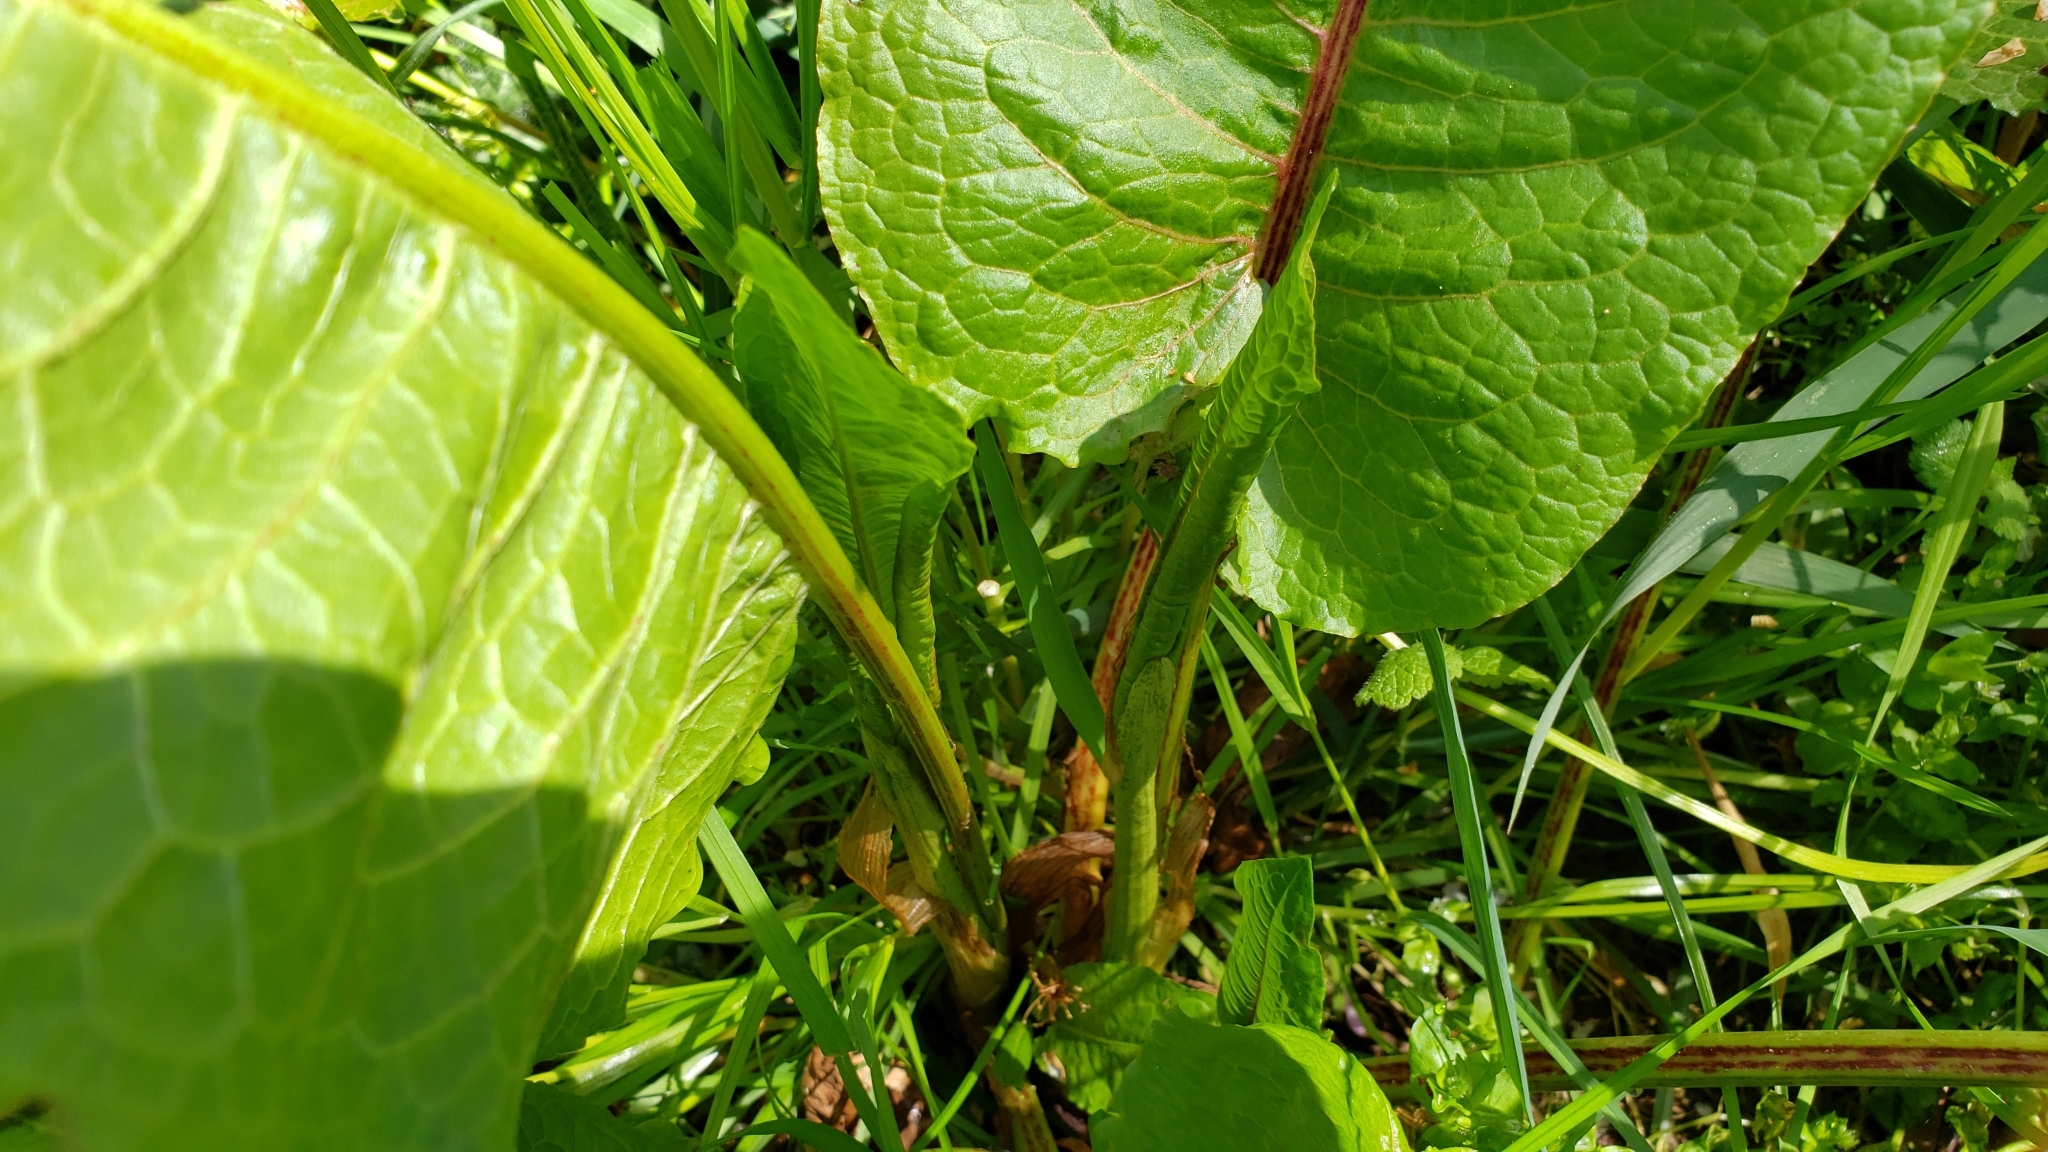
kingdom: Plantae
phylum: Tracheophyta
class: Magnoliopsida
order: Caryophyllales
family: Polygonaceae
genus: Rumex
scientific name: Rumex obtusifolius
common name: Bitter dock
